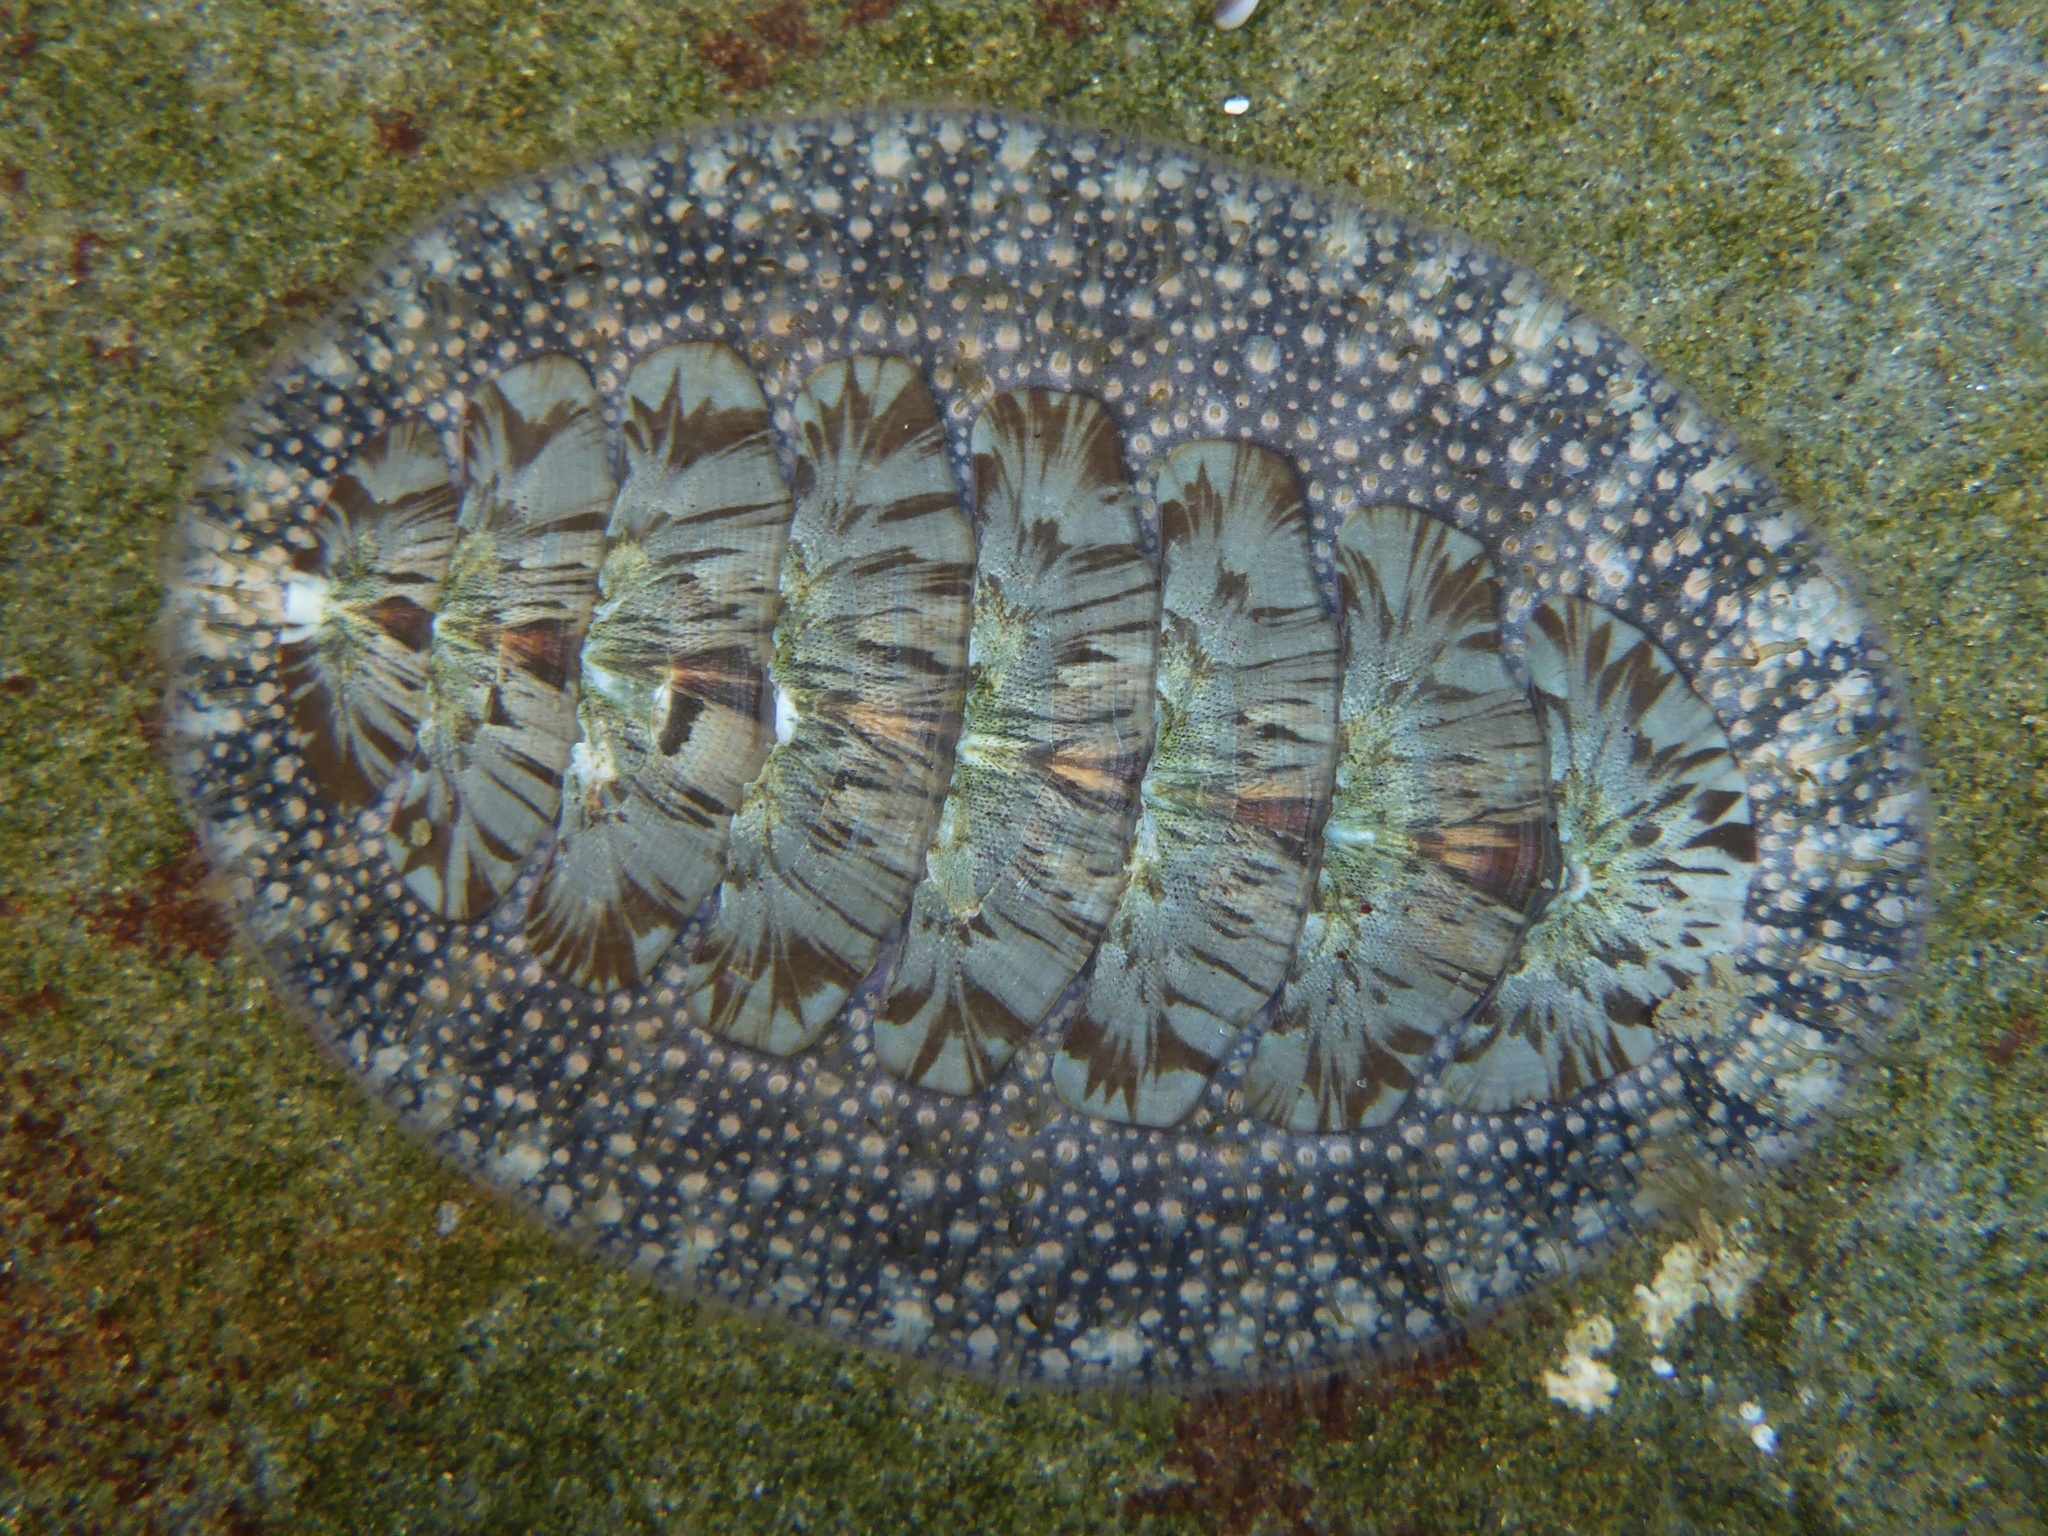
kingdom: Animalia
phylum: Mollusca
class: Polyplacophora
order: Chitonida
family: Mopaliidae
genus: Mopalia
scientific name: Mopalia lignosa
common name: Woody chiton
